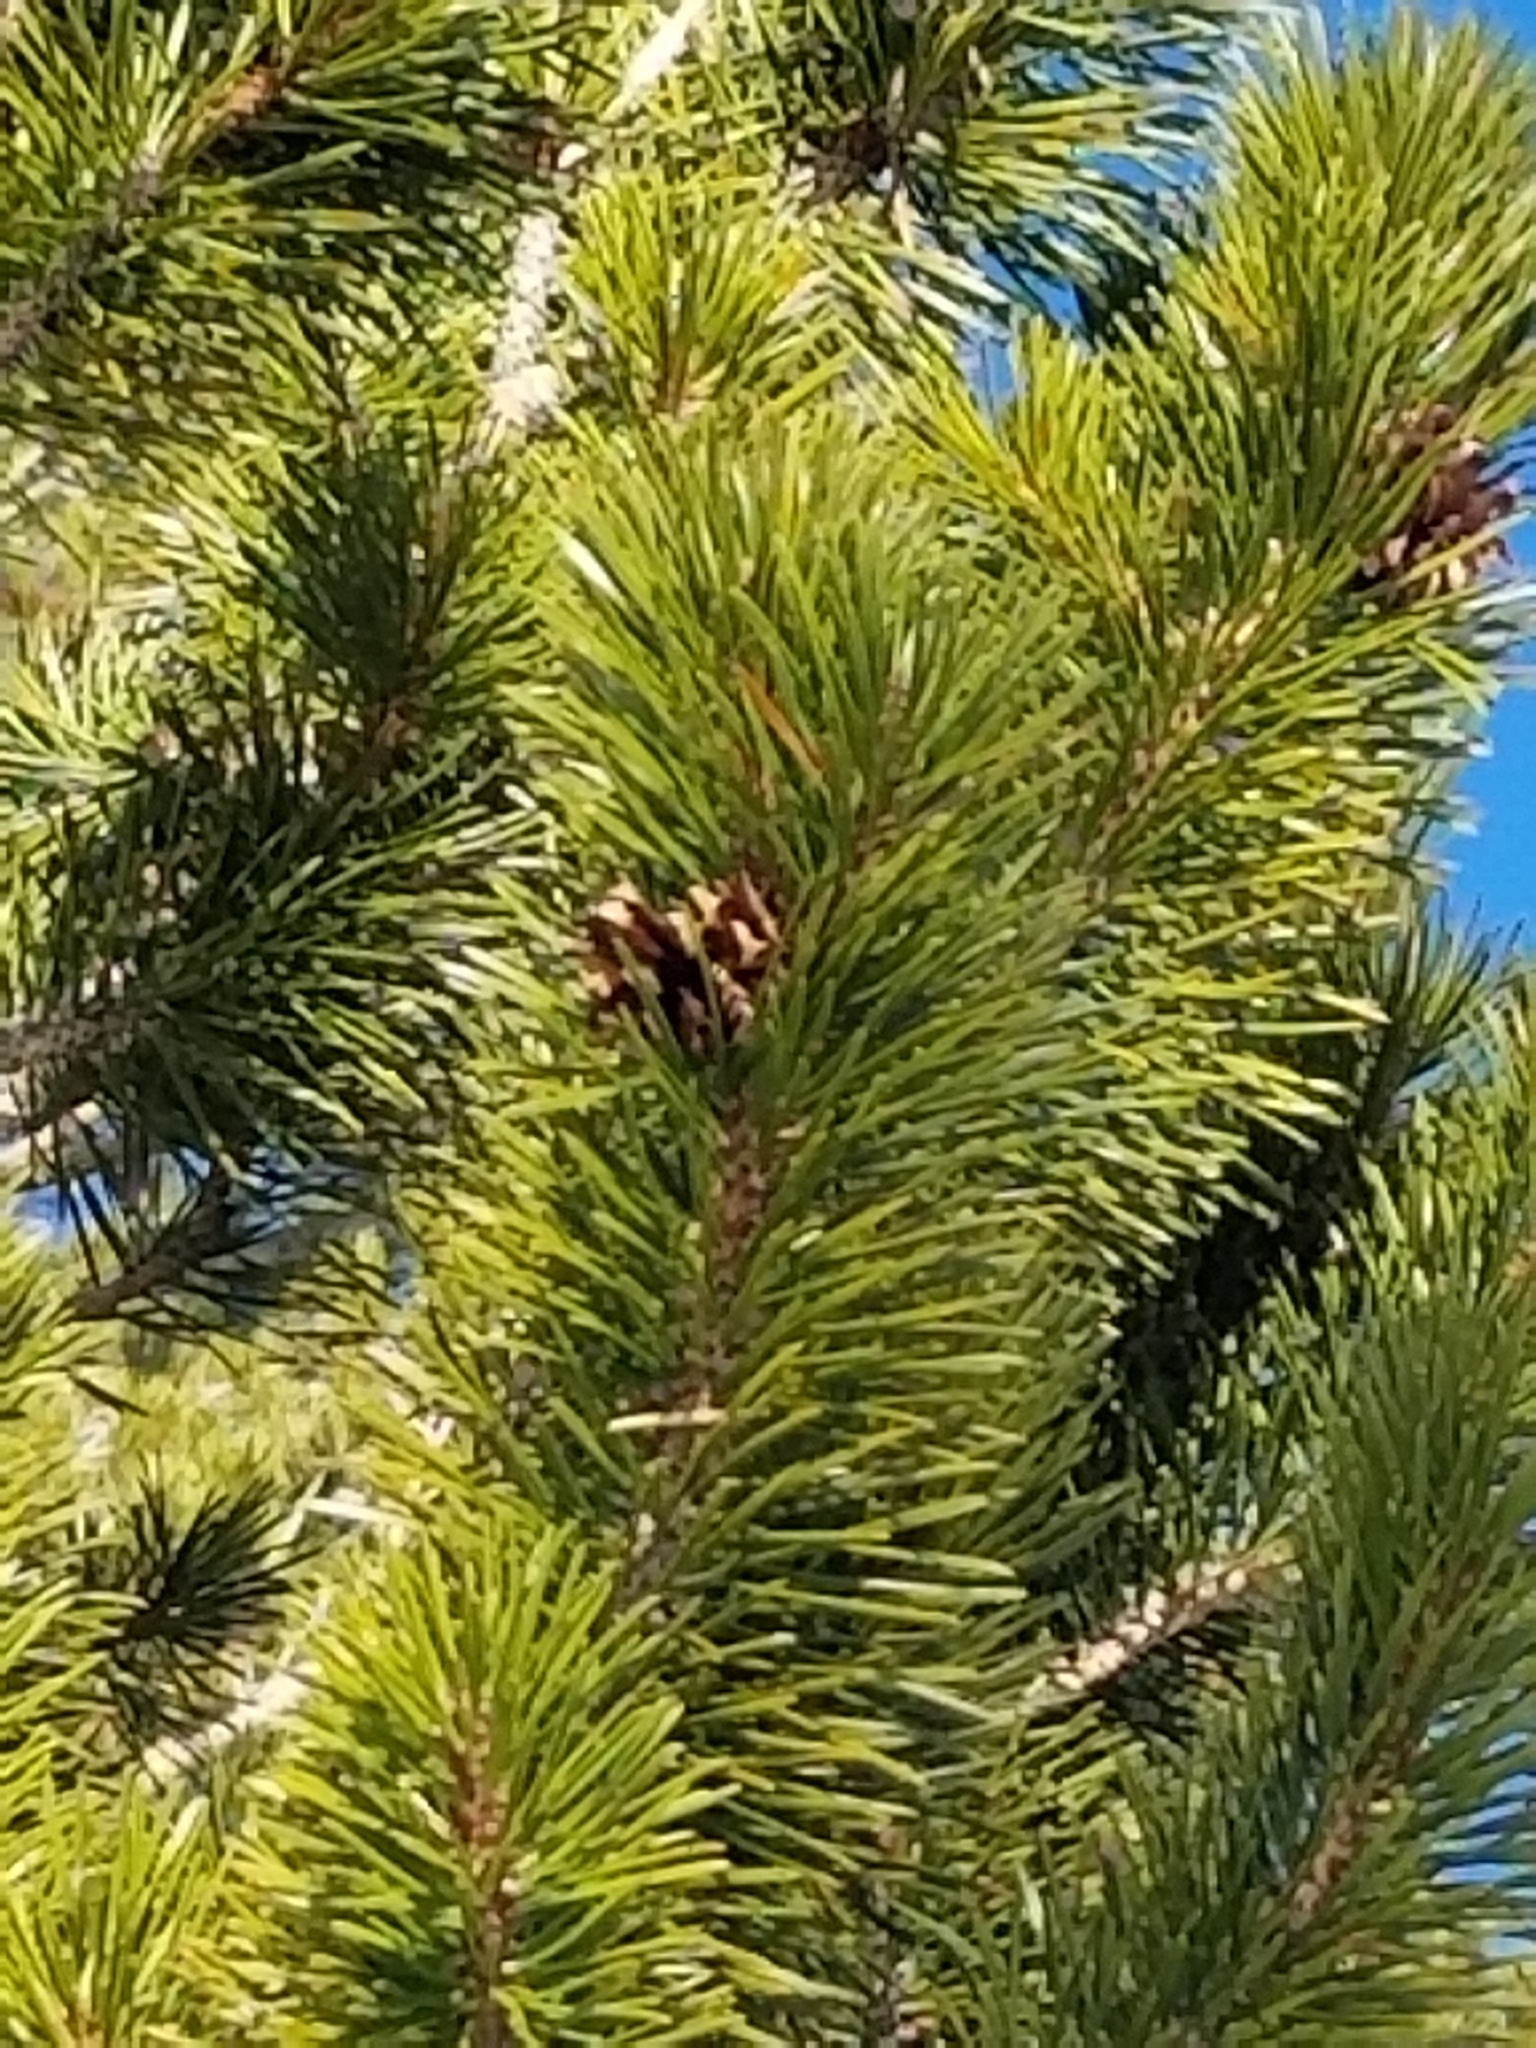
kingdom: Plantae
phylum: Tracheophyta
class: Pinopsida
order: Pinales
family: Pinaceae
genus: Pinus
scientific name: Pinus contorta
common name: Lodgepole pine
